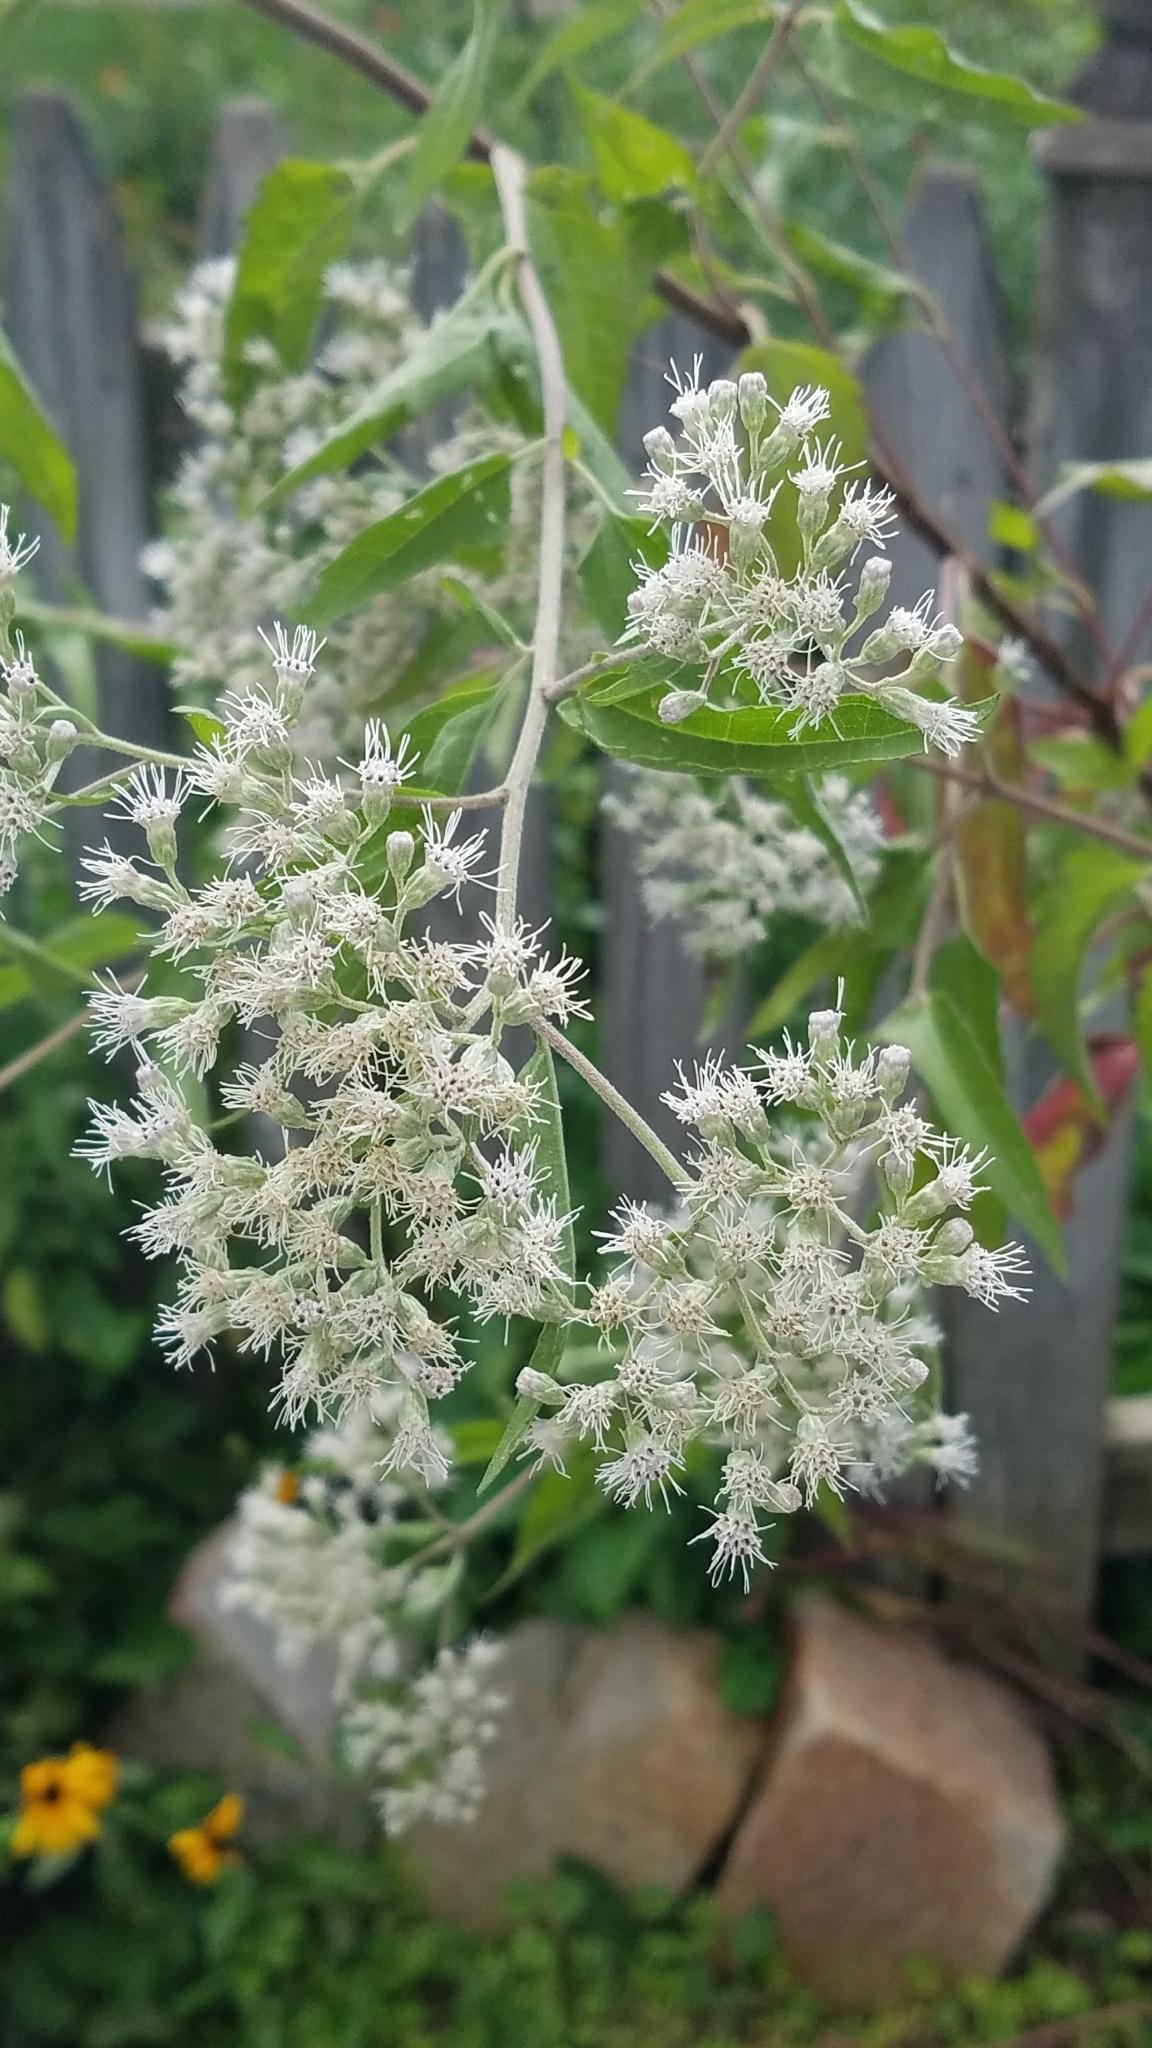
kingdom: Plantae
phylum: Tracheophyta
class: Magnoliopsida
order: Asterales
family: Asteraceae
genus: Eupatorium
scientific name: Eupatorium serotinum
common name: Late boneset
